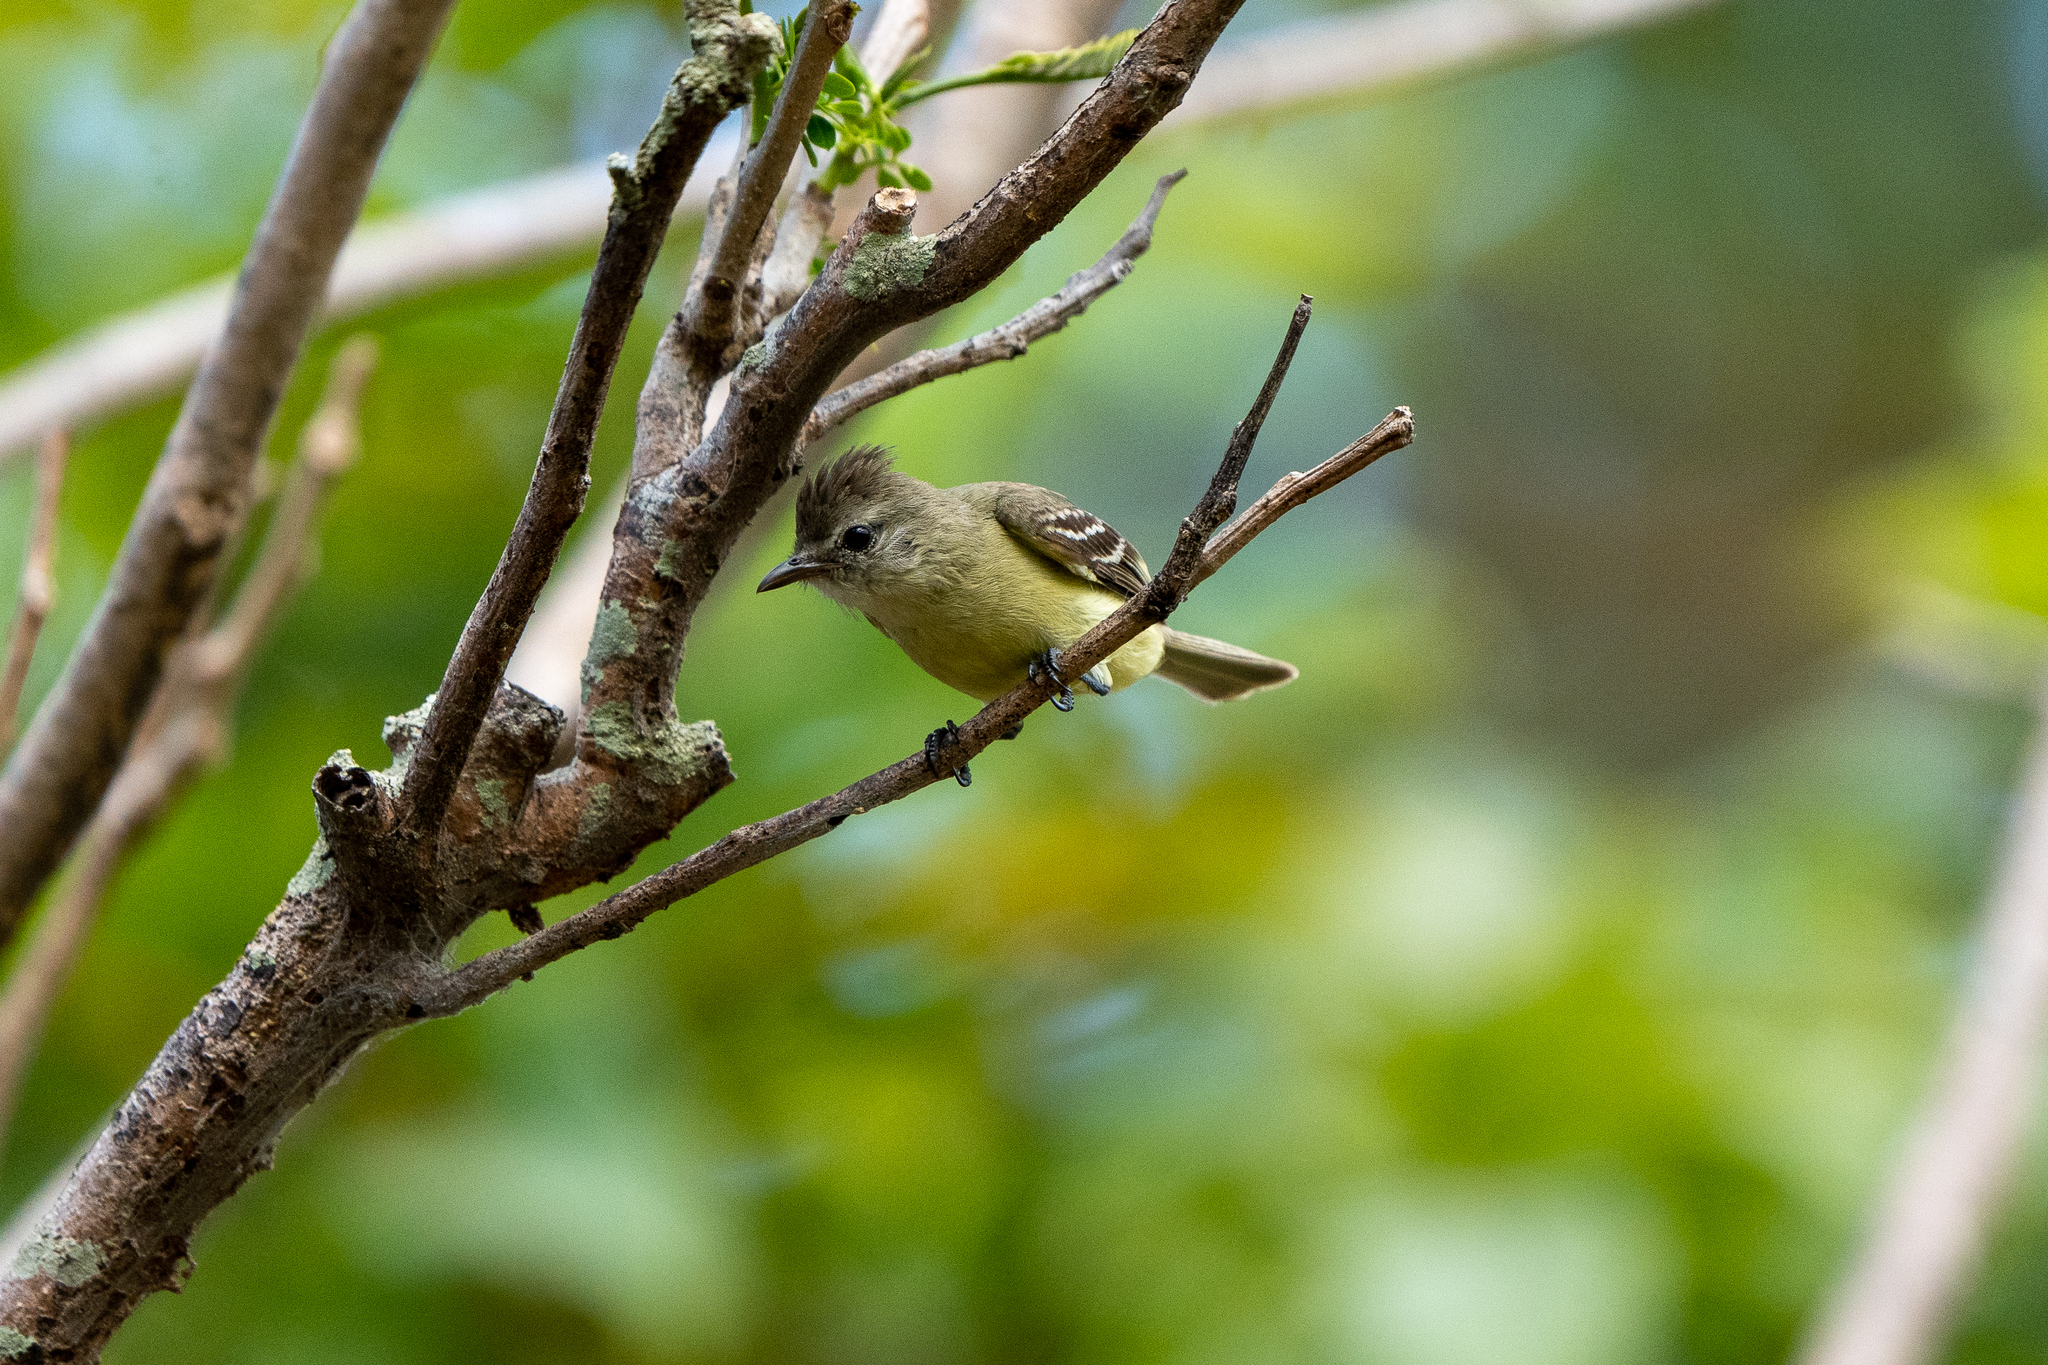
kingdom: Animalia
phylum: Chordata
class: Aves
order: Passeriformes
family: Tyrannidae
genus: Camptostoma
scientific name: Camptostoma obsoletum
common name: Southern beardless-tyrannulet
